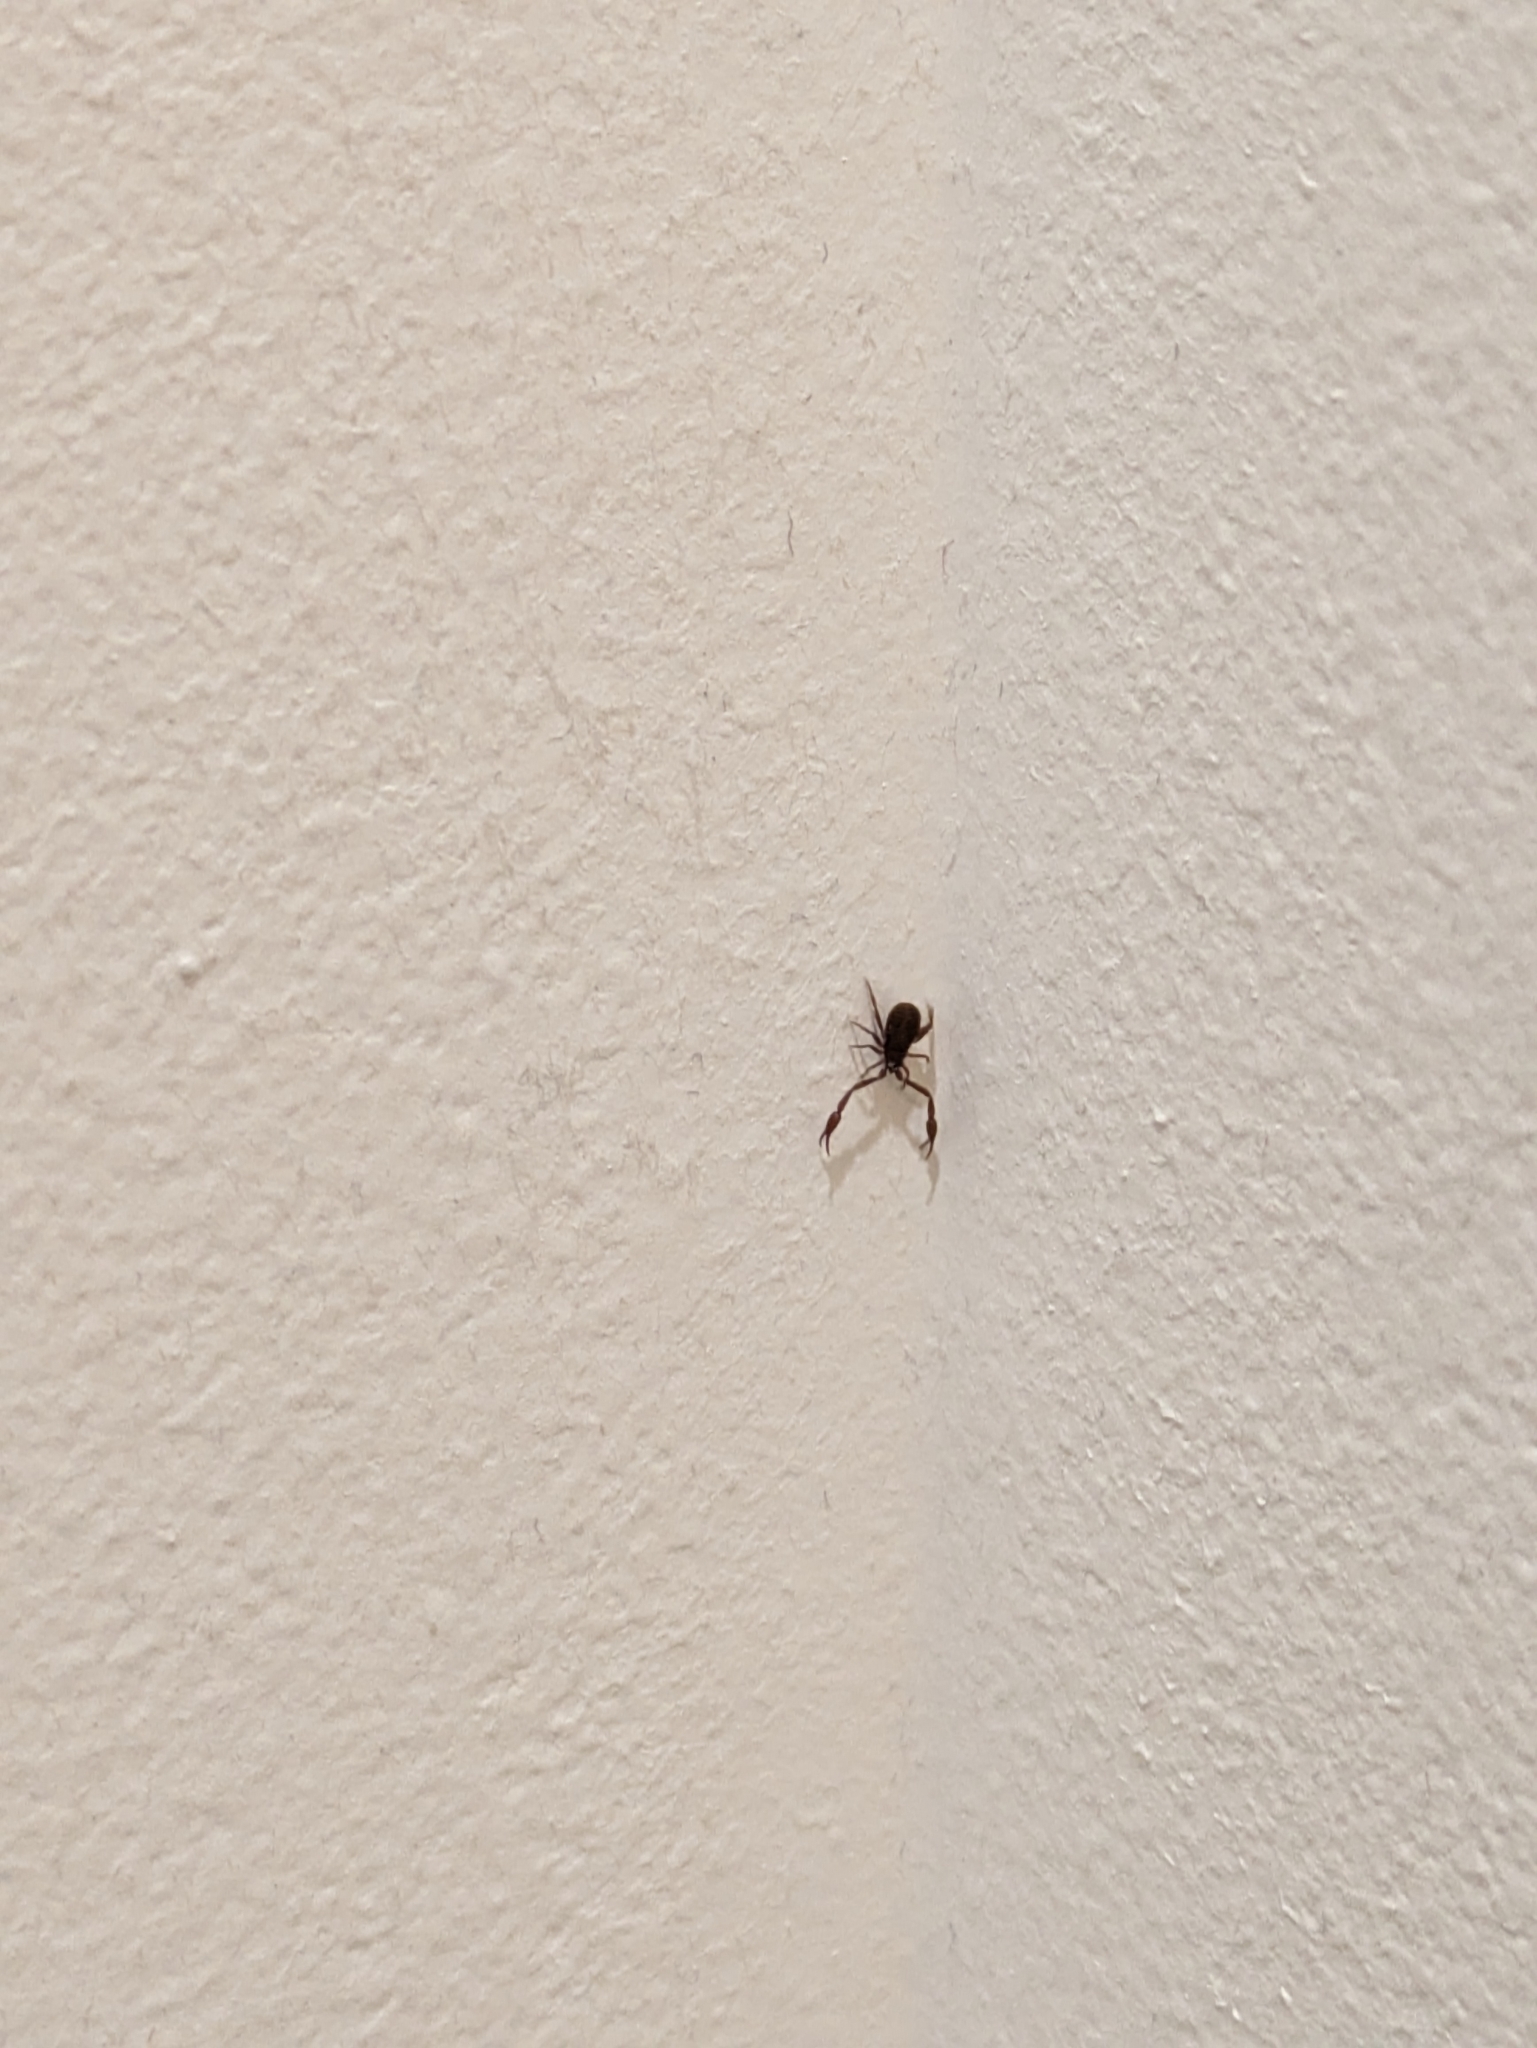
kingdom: Animalia
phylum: Arthropoda
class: Arachnida
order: Pseudoscorpiones
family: Cheliferidae
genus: Chelifer
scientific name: Chelifer cancroides
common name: House false-scorpion
